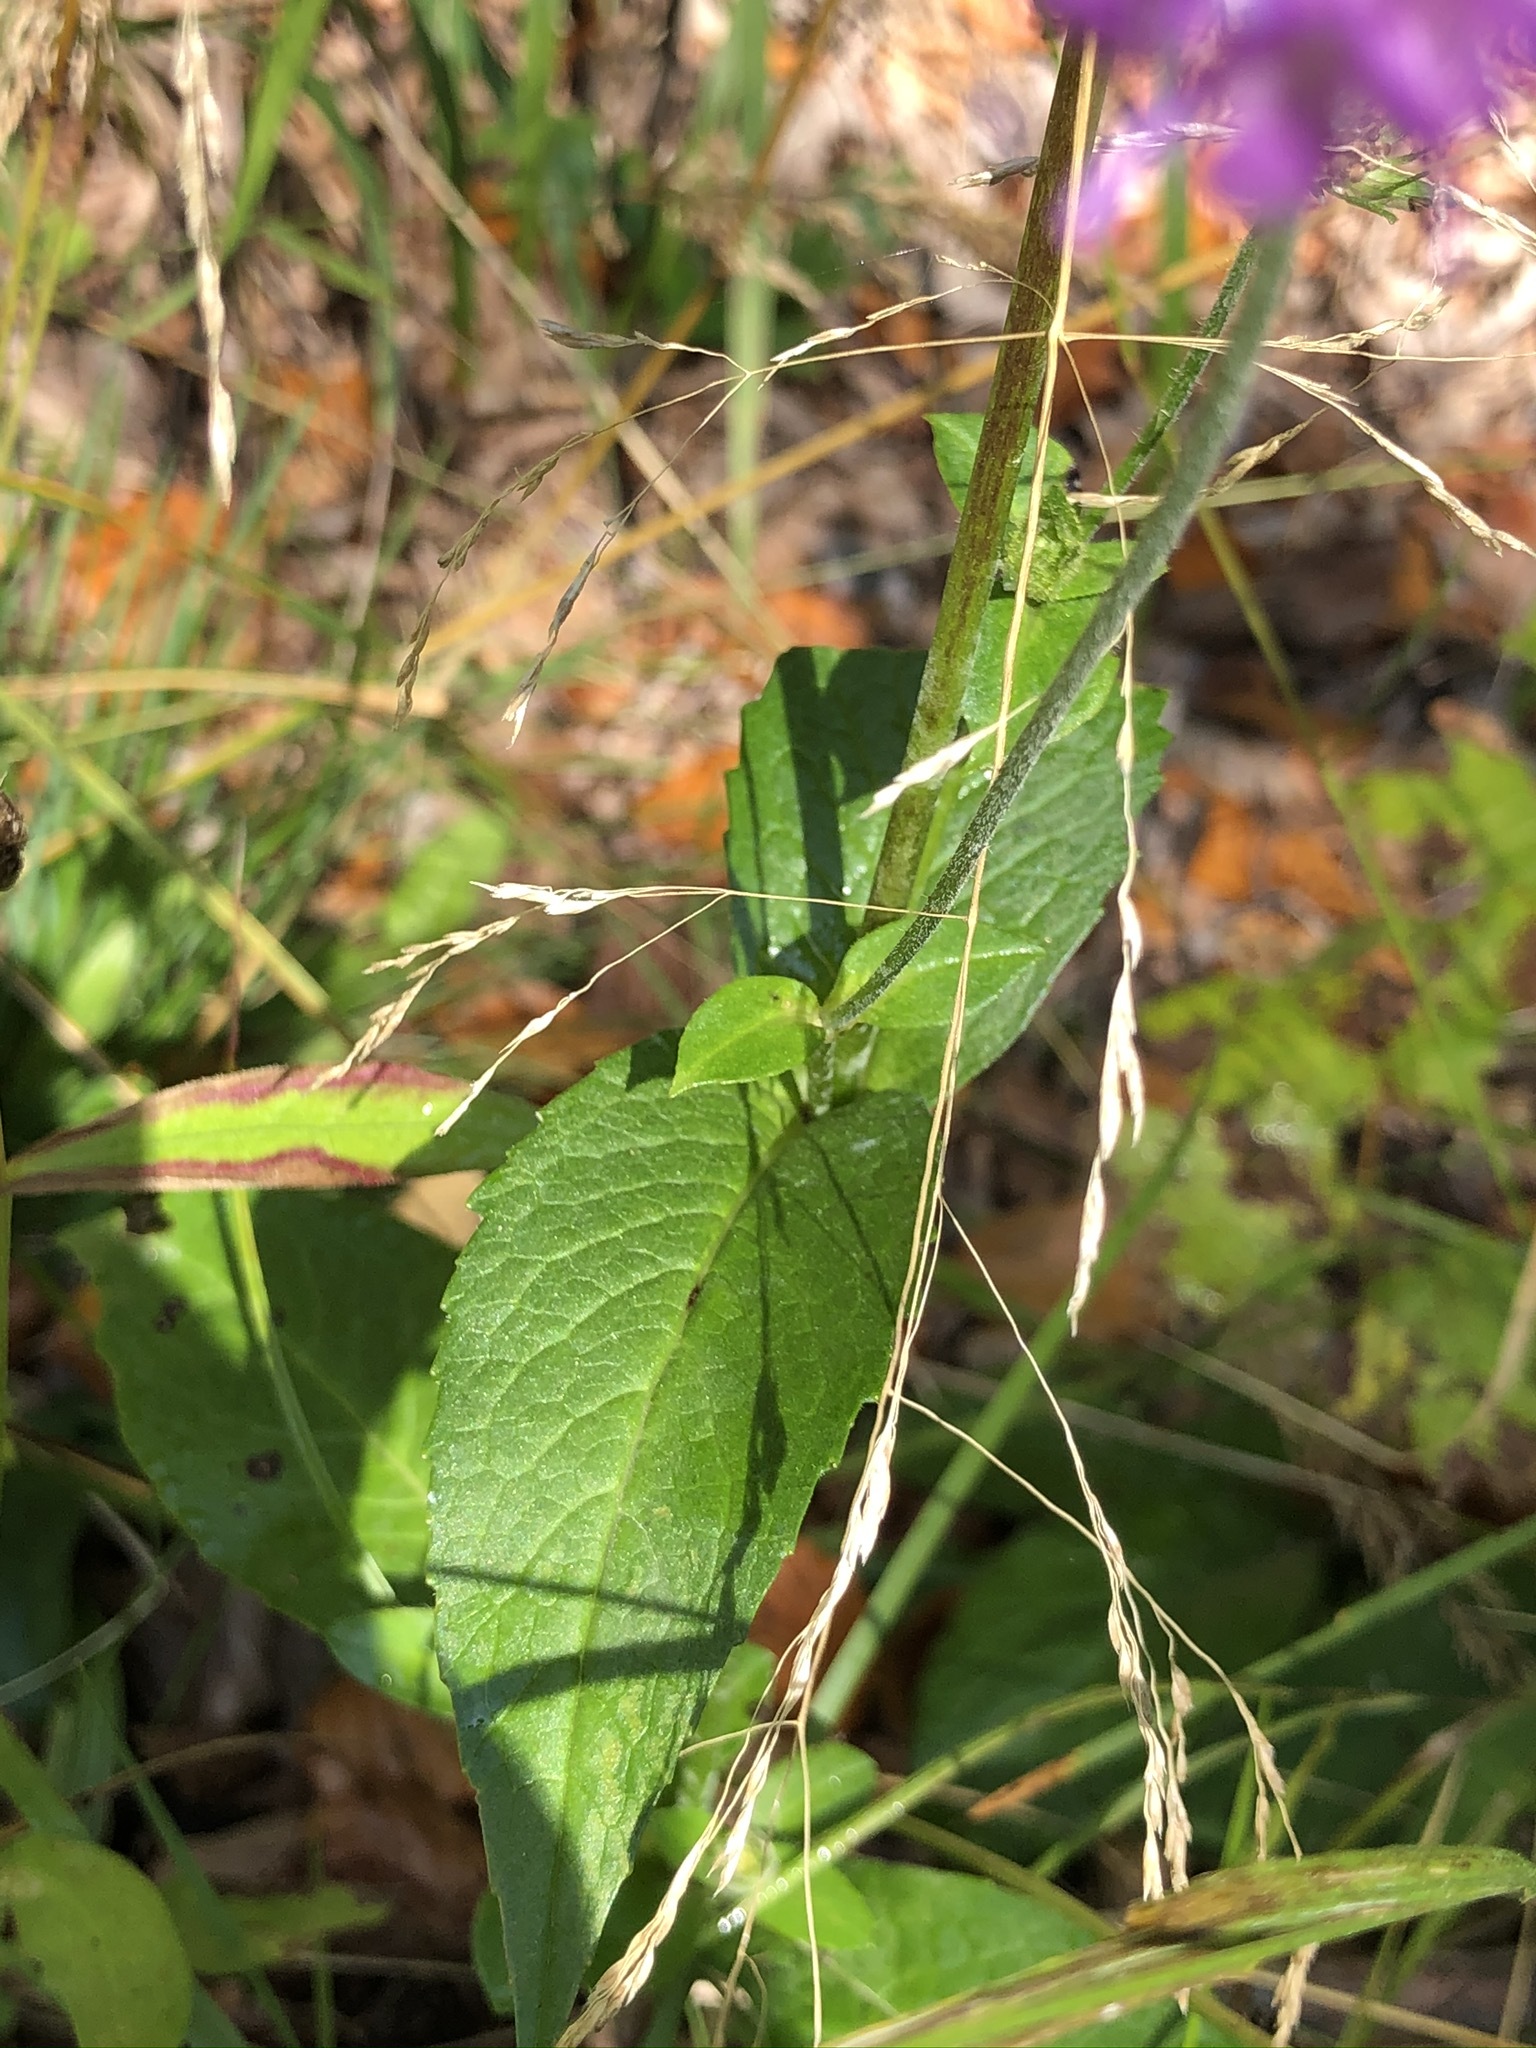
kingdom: Plantae
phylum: Tracheophyta
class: Magnoliopsida
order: Dipsacales
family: Caprifoliaceae
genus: Knautia
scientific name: Knautia dipsacifolia
